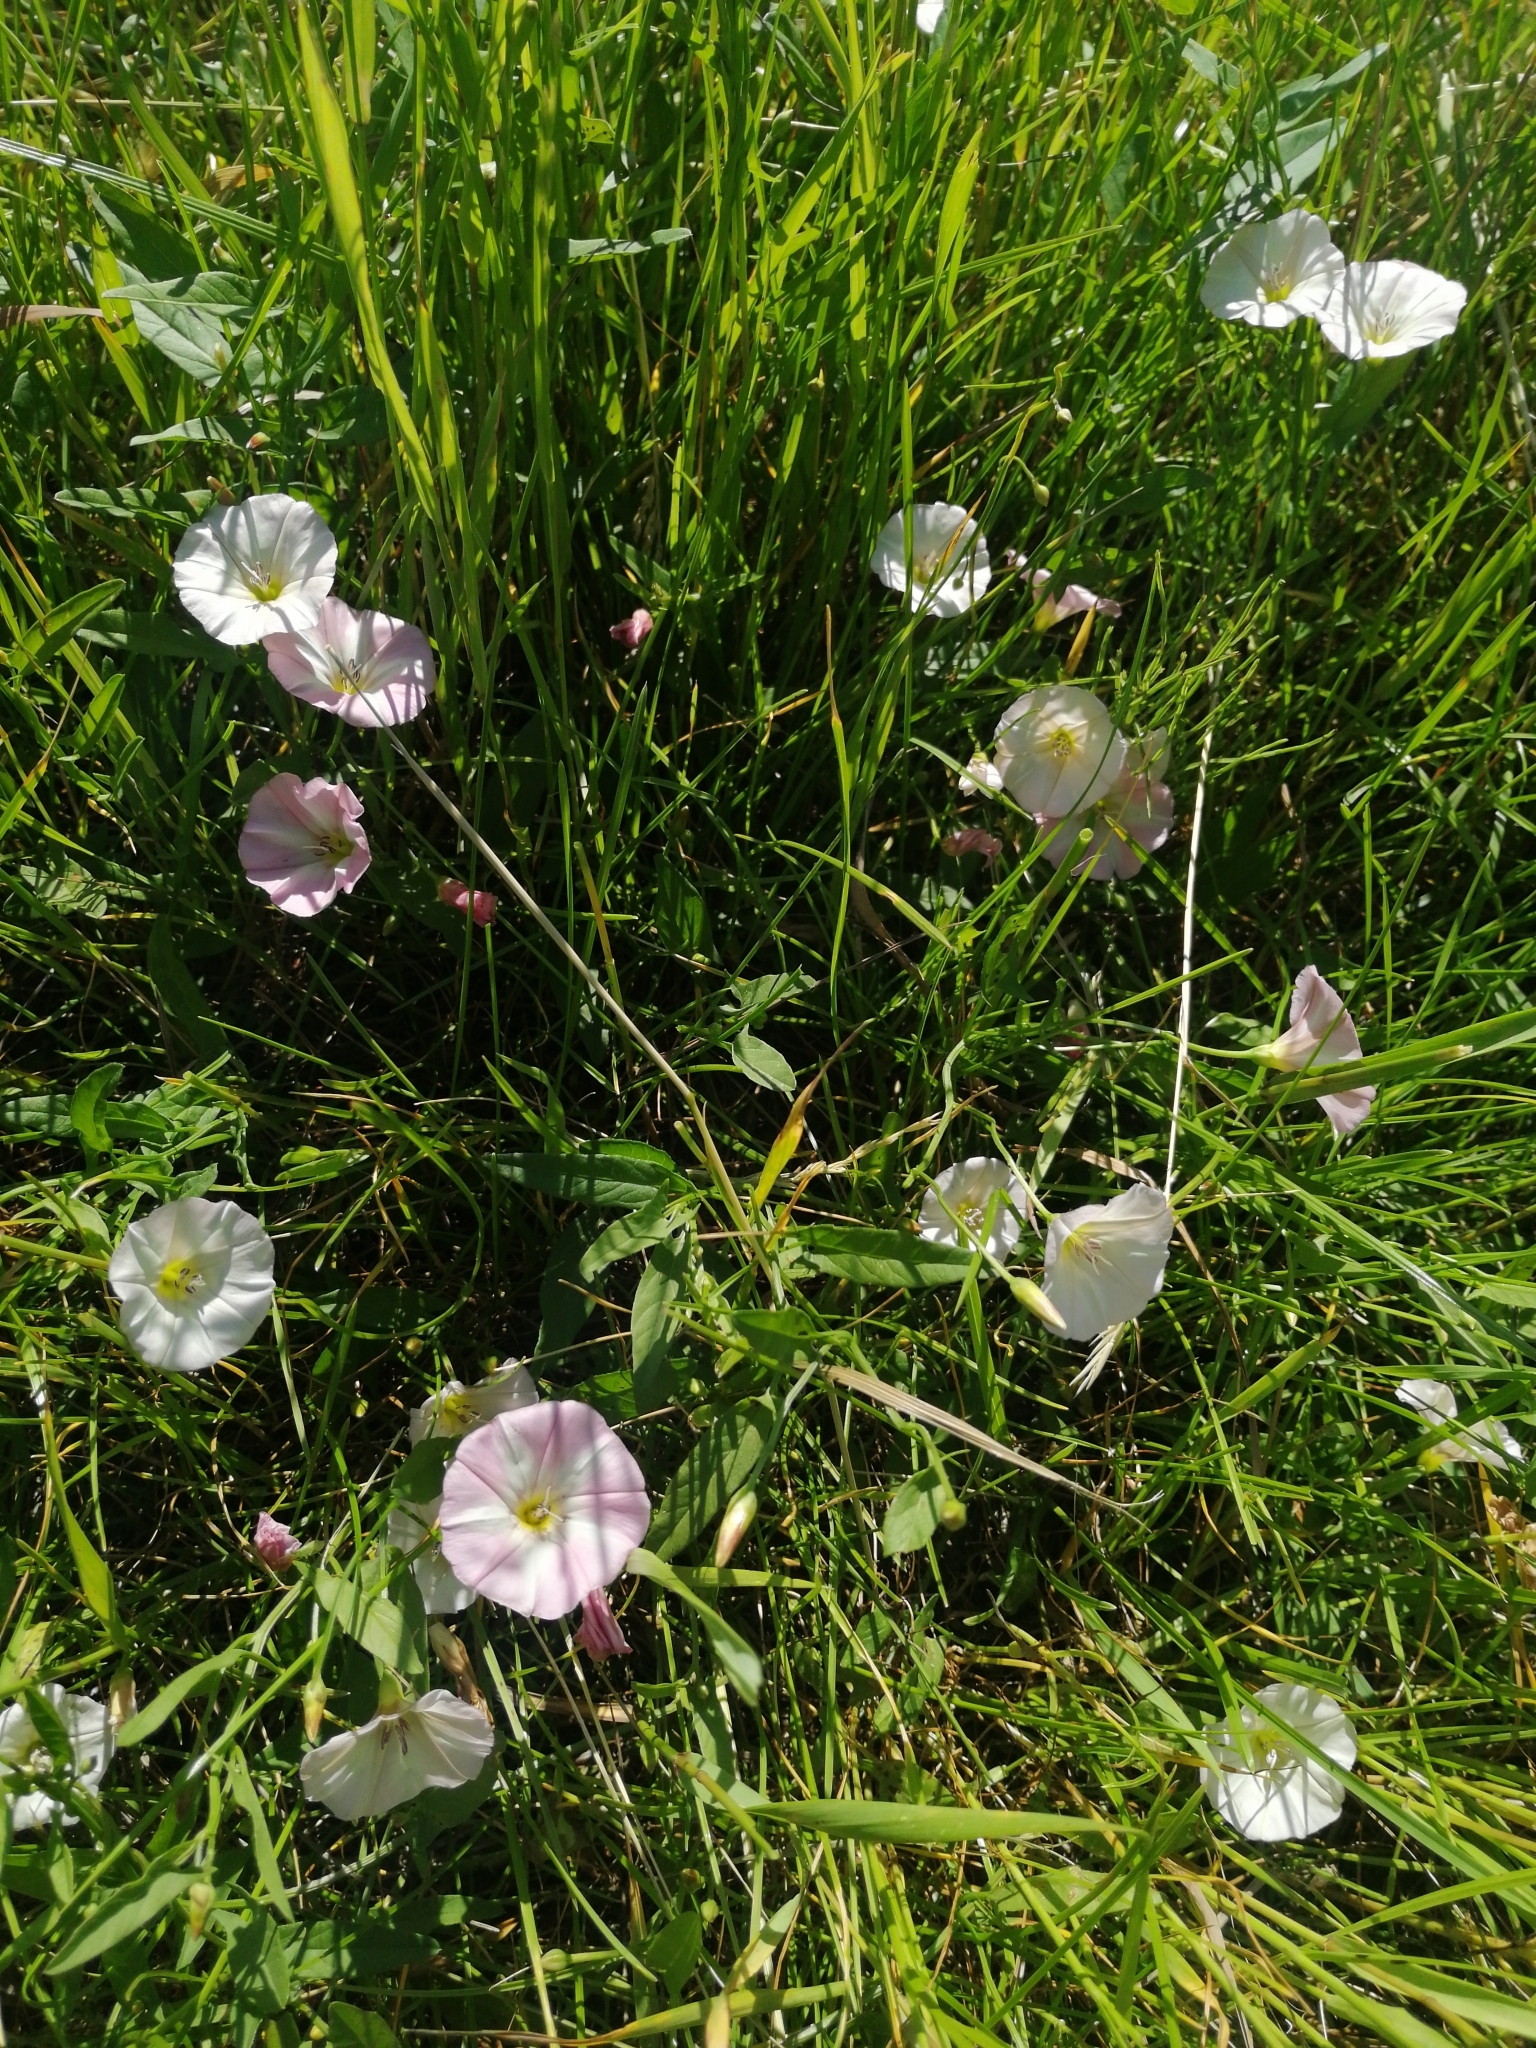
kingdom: Plantae
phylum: Tracheophyta
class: Magnoliopsida
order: Solanales
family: Convolvulaceae
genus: Convolvulus
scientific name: Convolvulus arvensis
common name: Field bindweed
